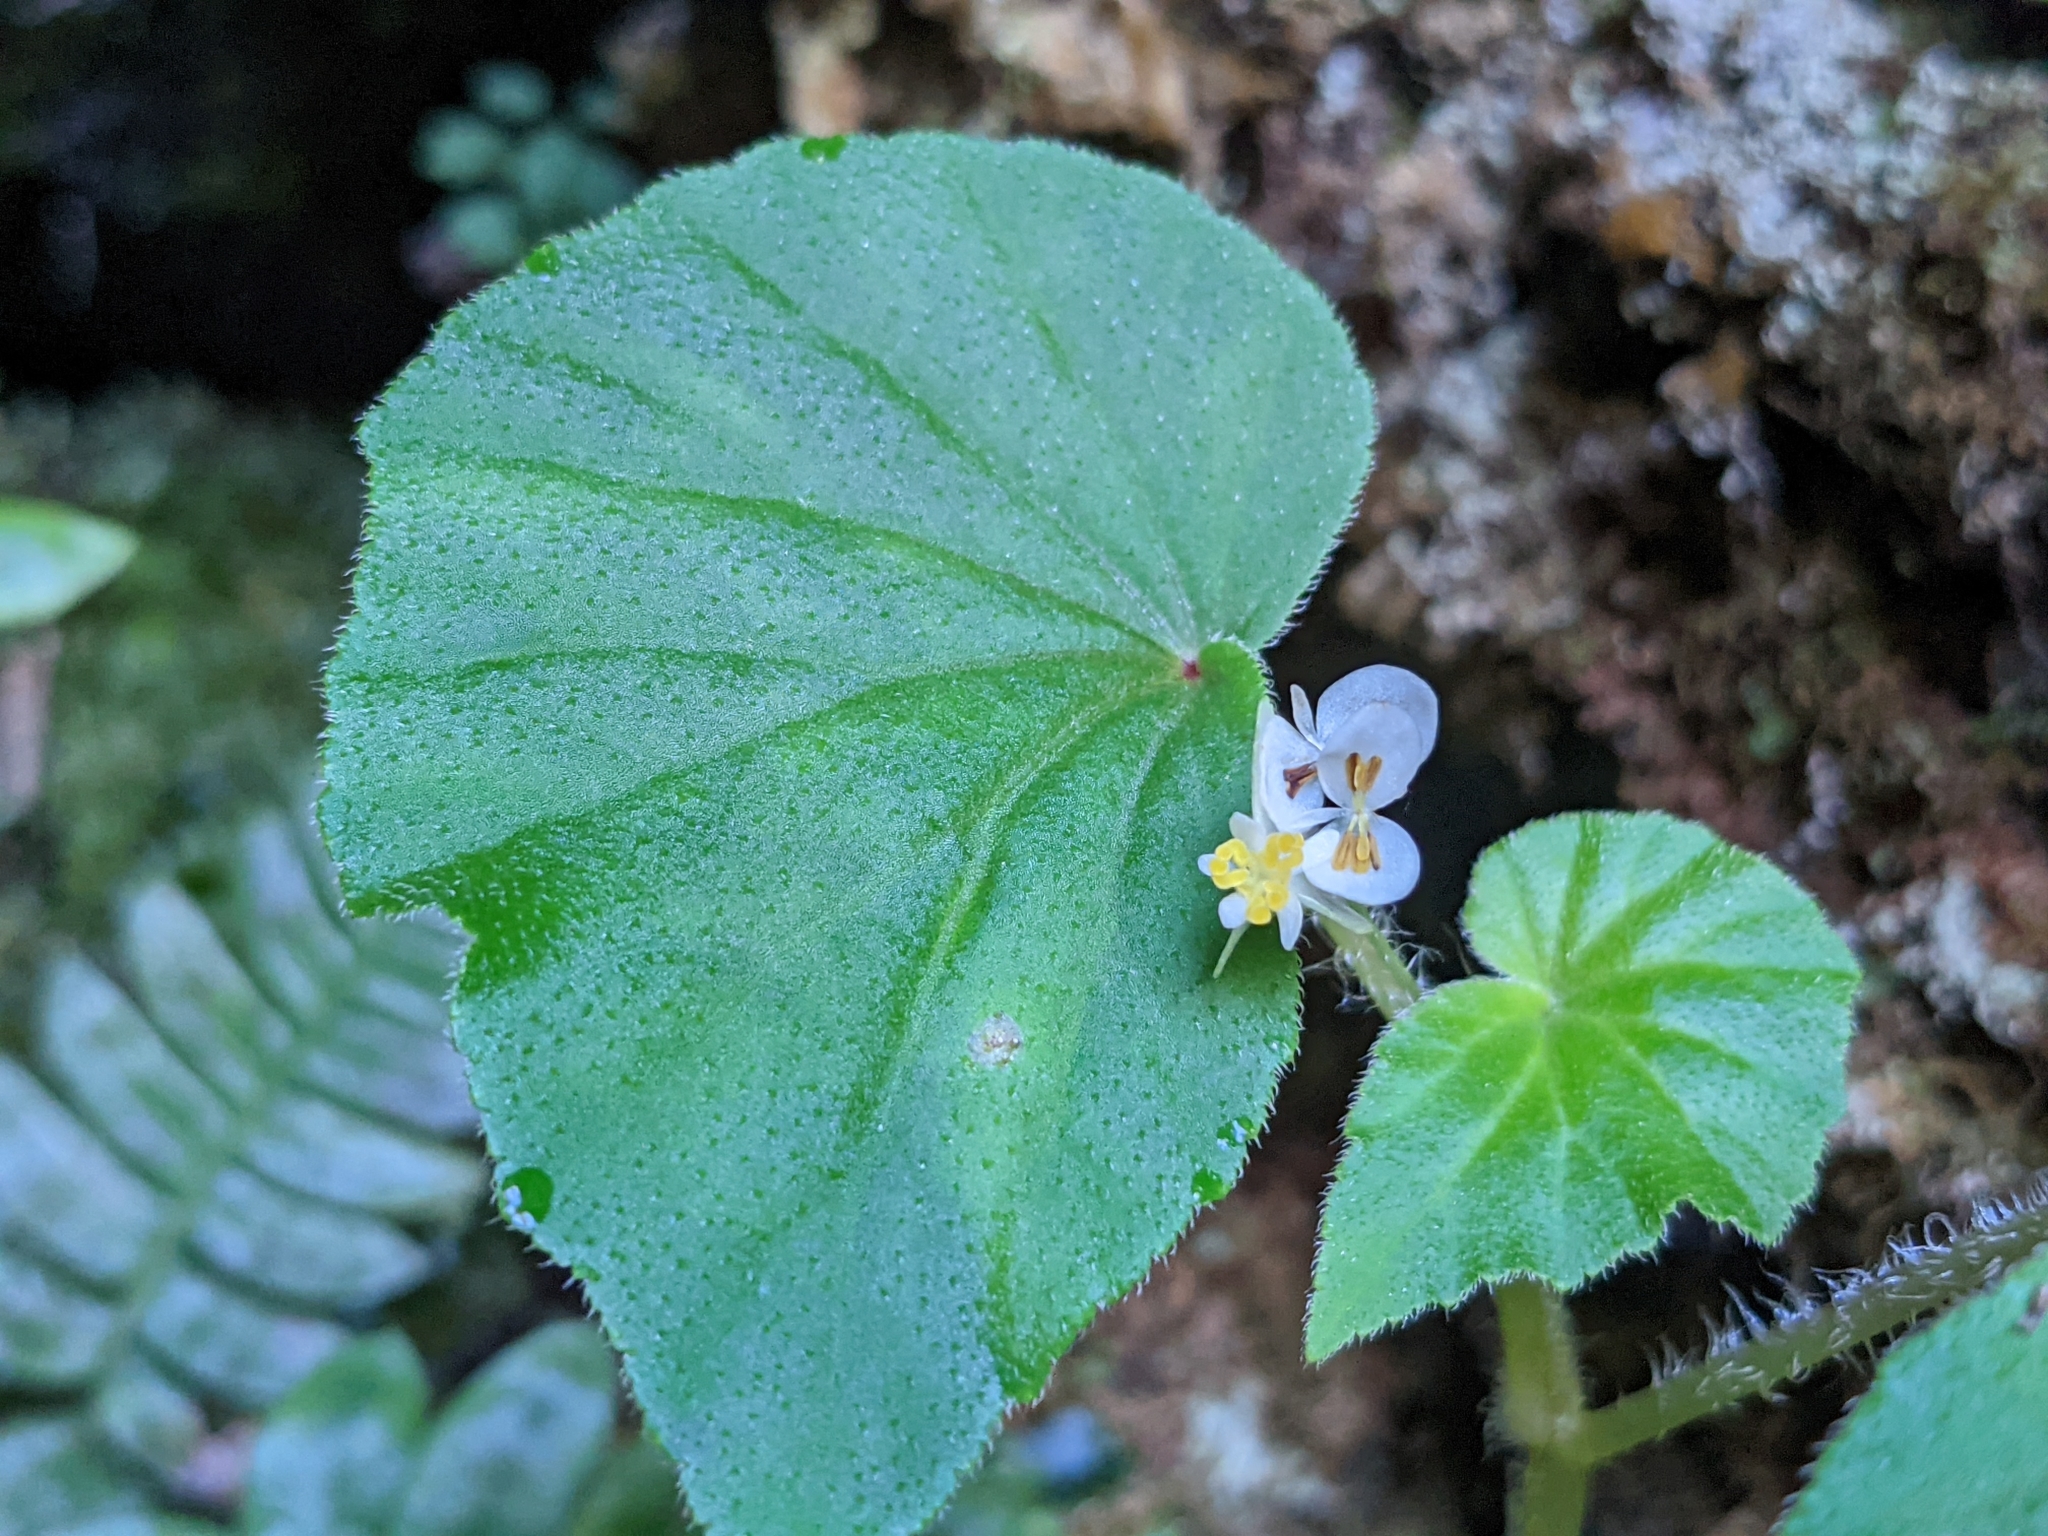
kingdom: Plantae
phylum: Tracheophyta
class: Magnoliopsida
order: Cucurbitales
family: Begoniaceae
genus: Begonia
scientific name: Begonia hirtella
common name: Brazilian begonia
